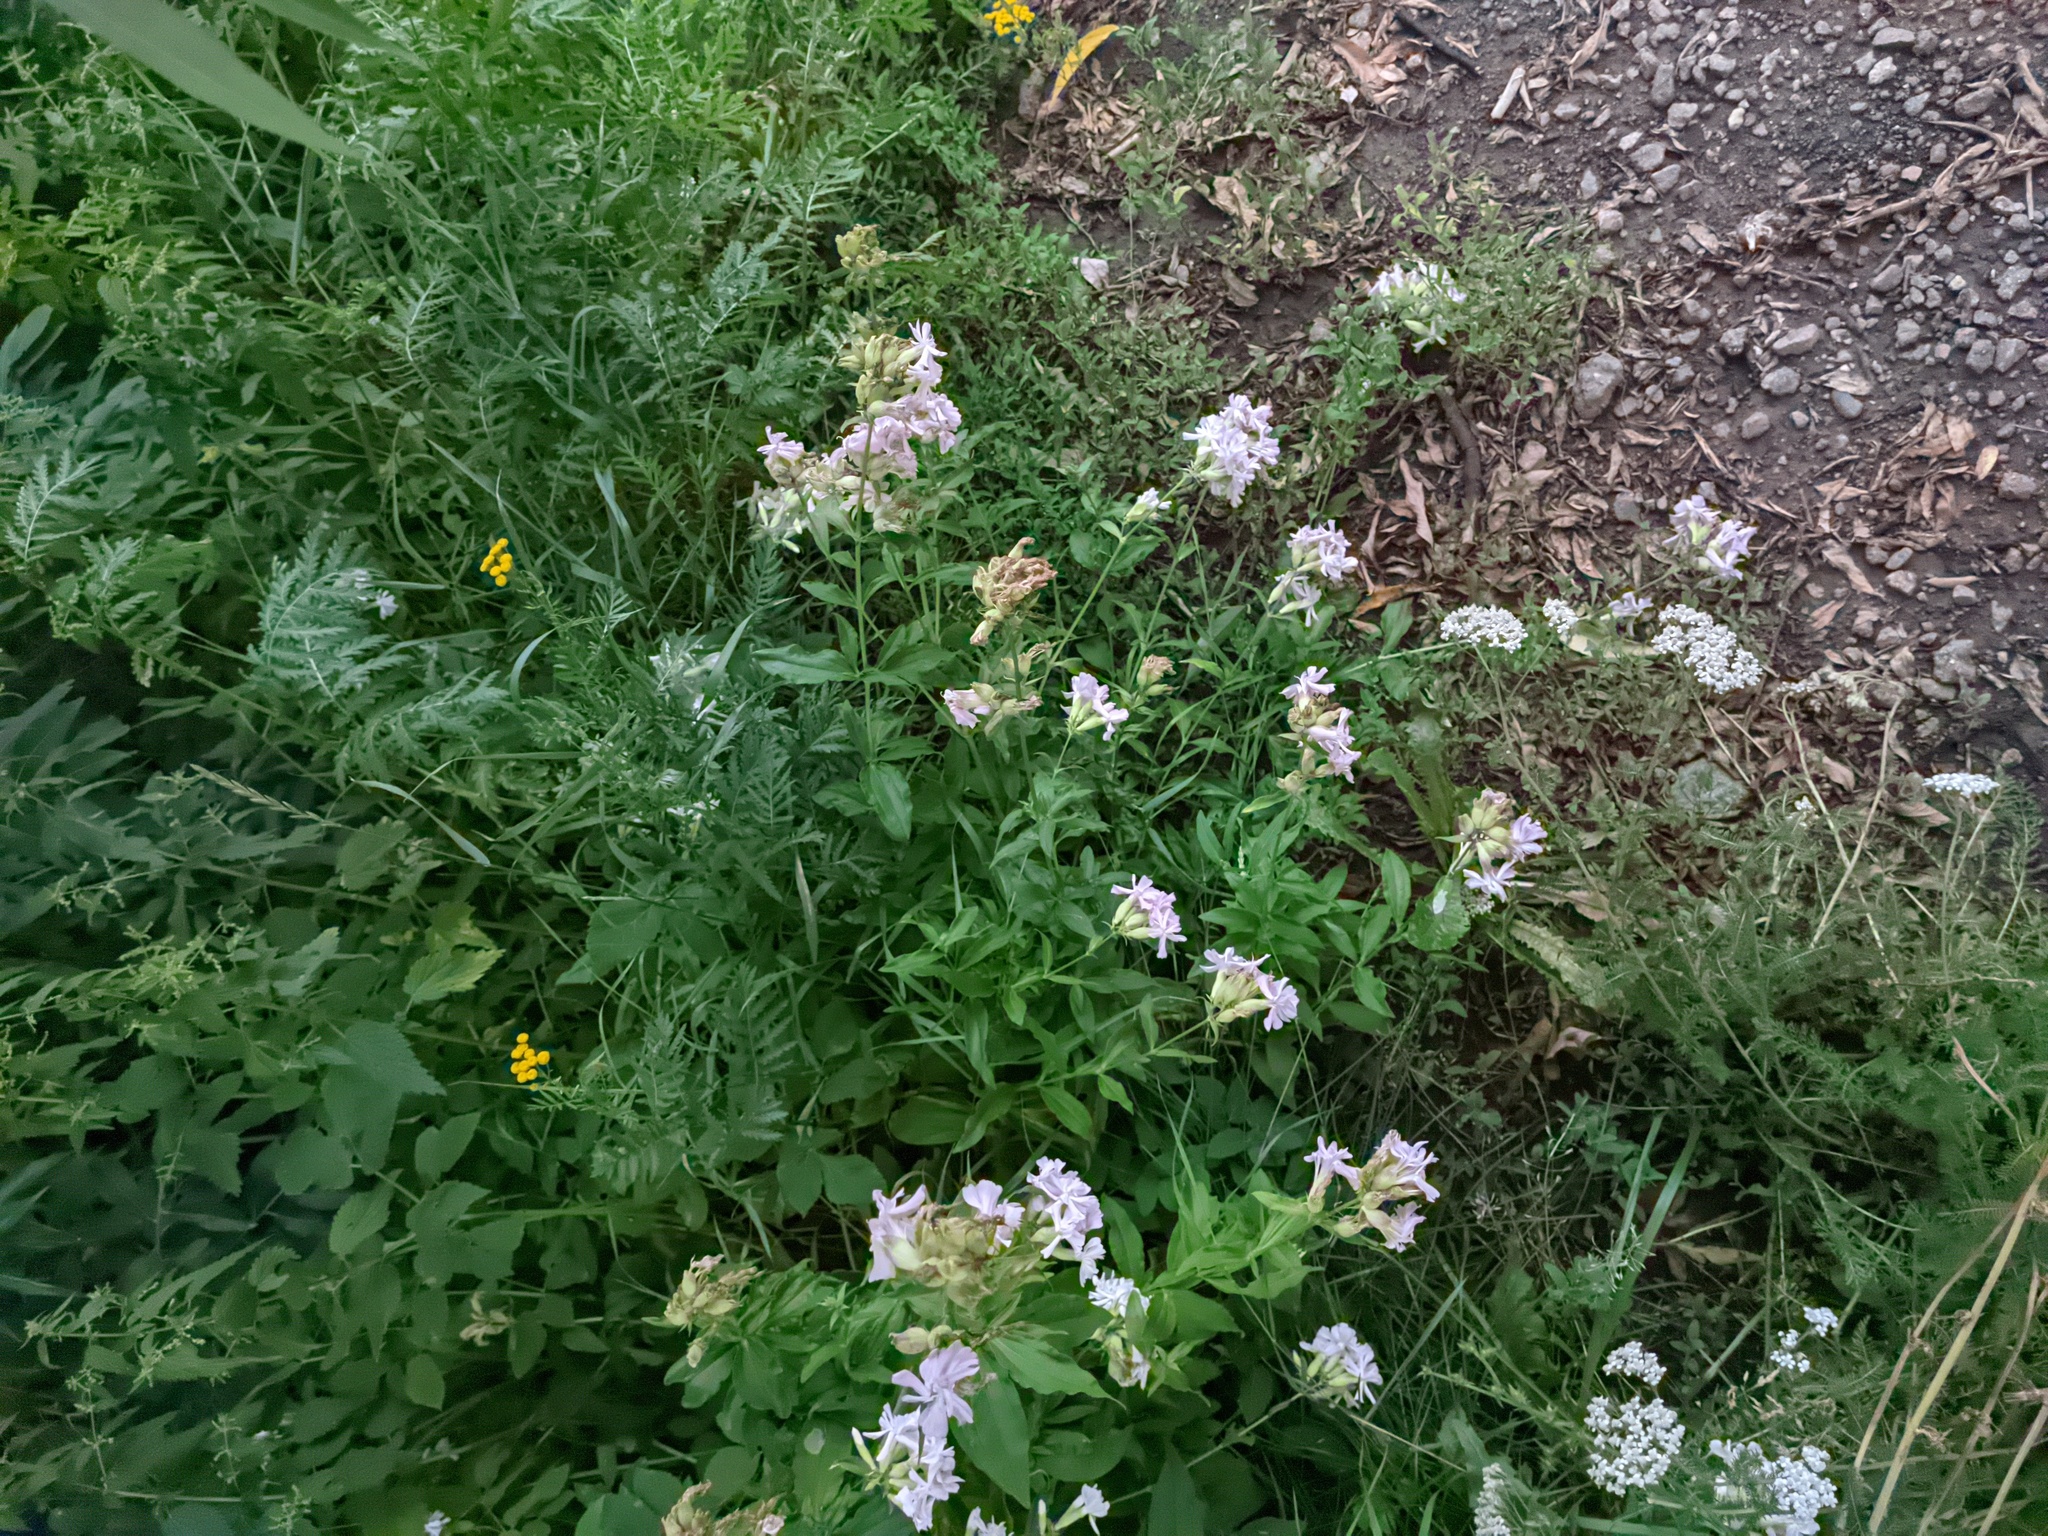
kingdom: Plantae
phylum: Tracheophyta
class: Magnoliopsida
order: Caryophyllales
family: Caryophyllaceae
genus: Saponaria
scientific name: Saponaria officinalis
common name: Soapwort
